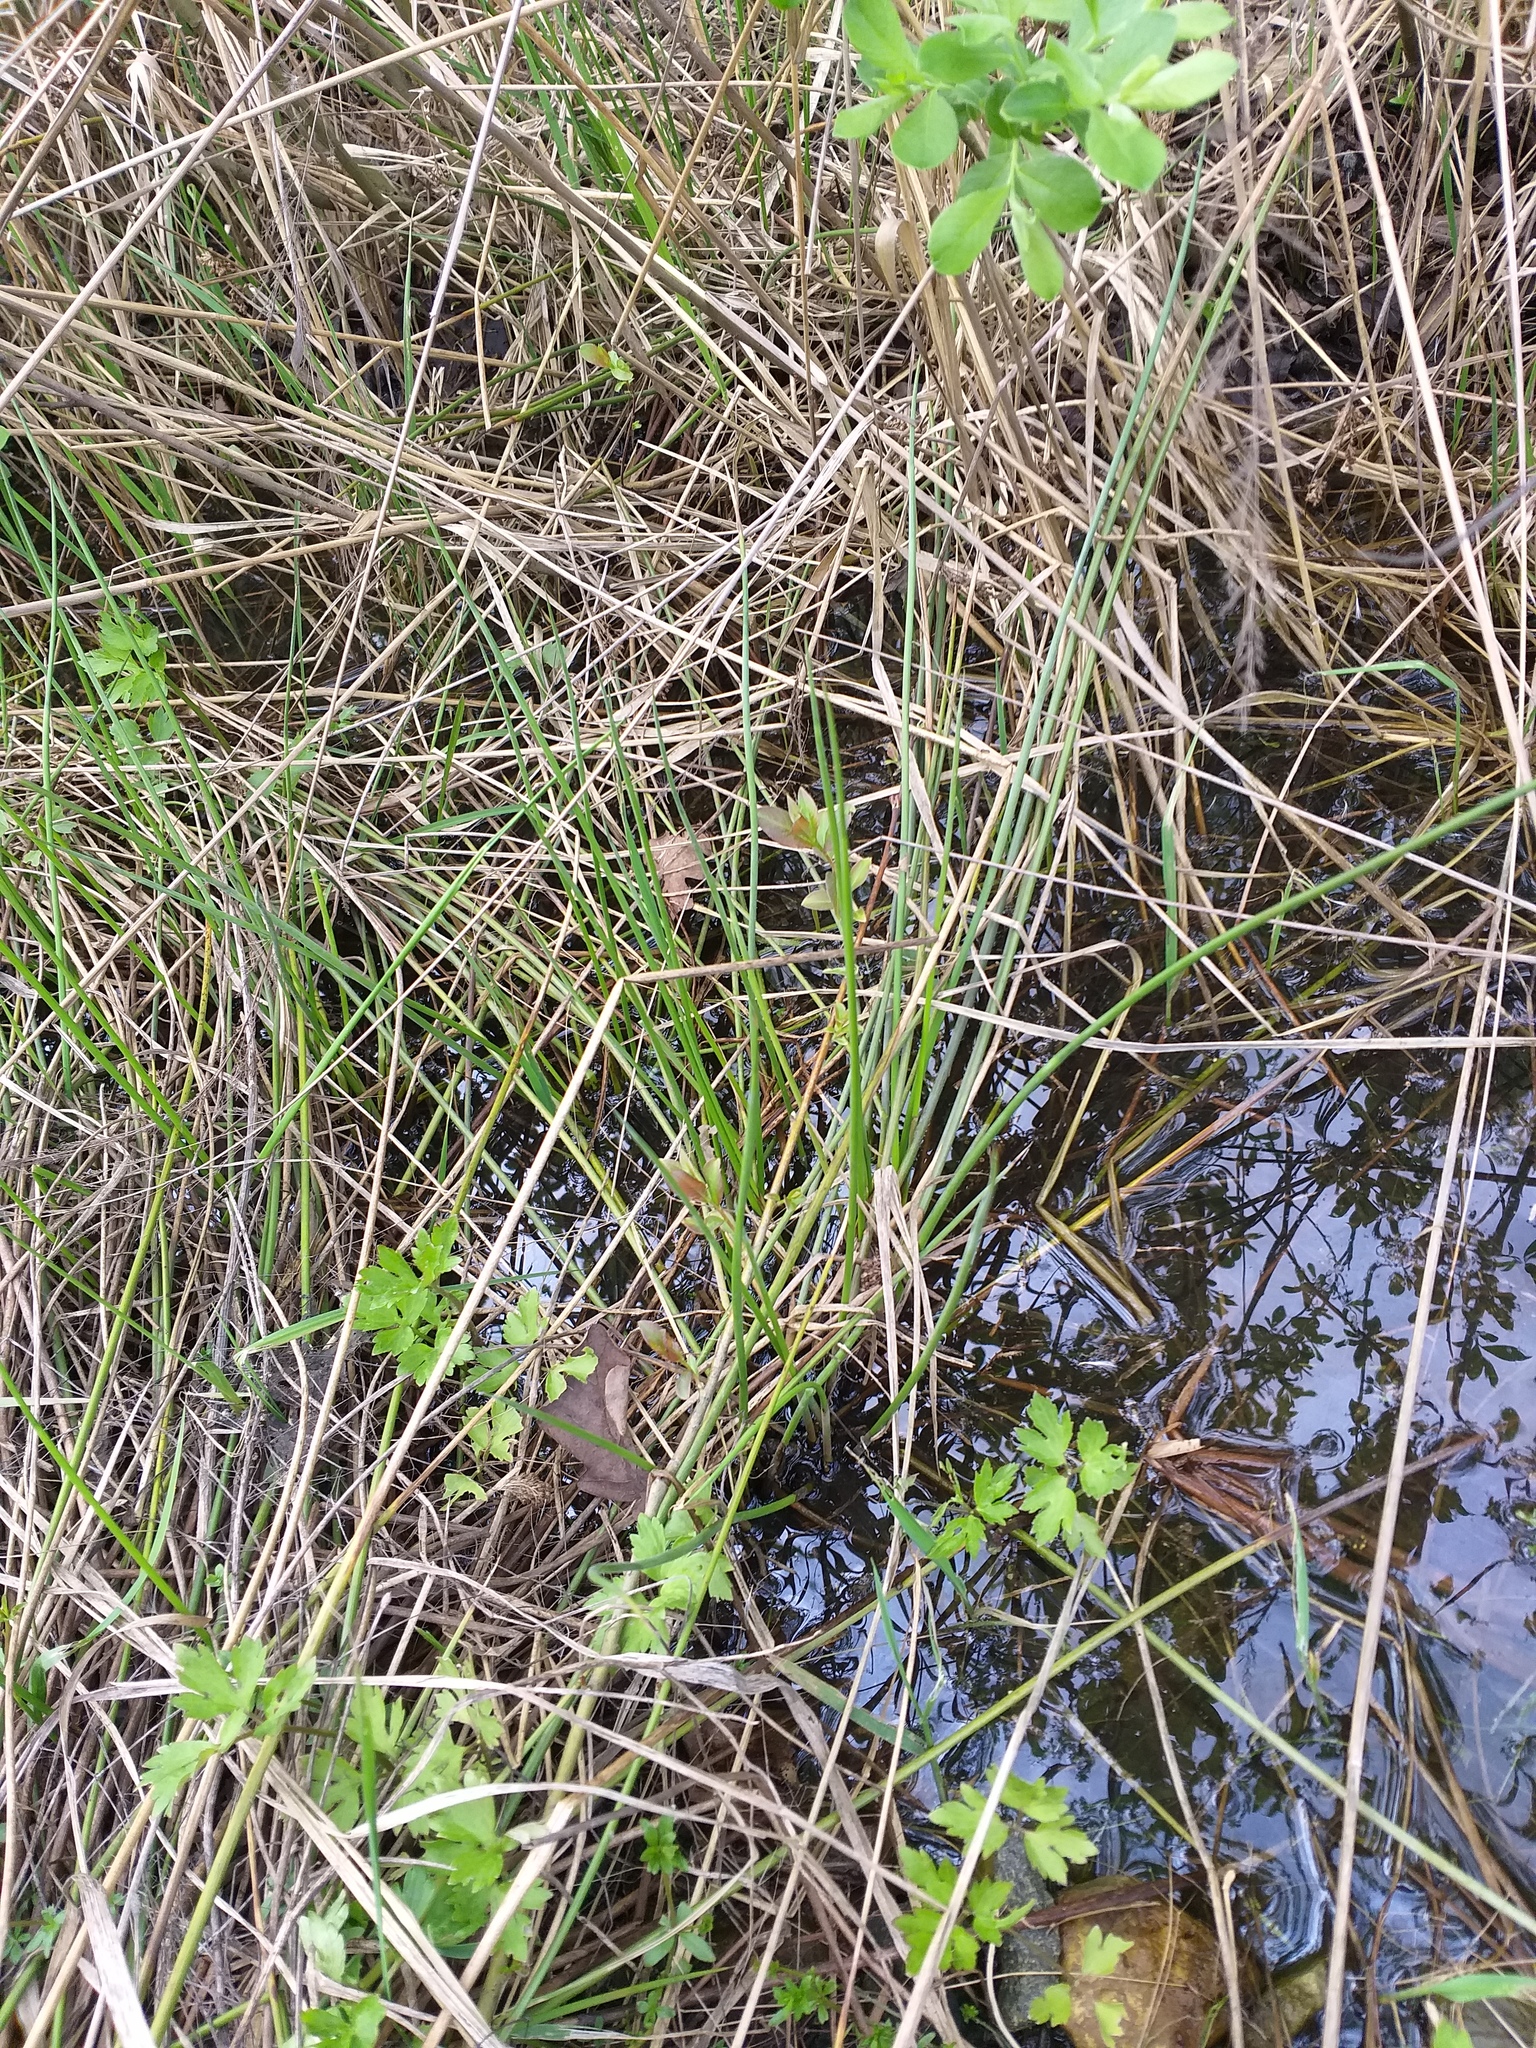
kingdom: Plantae
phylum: Tracheophyta
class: Liliopsida
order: Poales
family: Juncaceae
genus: Juncus
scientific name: Juncus effusus
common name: Soft rush
